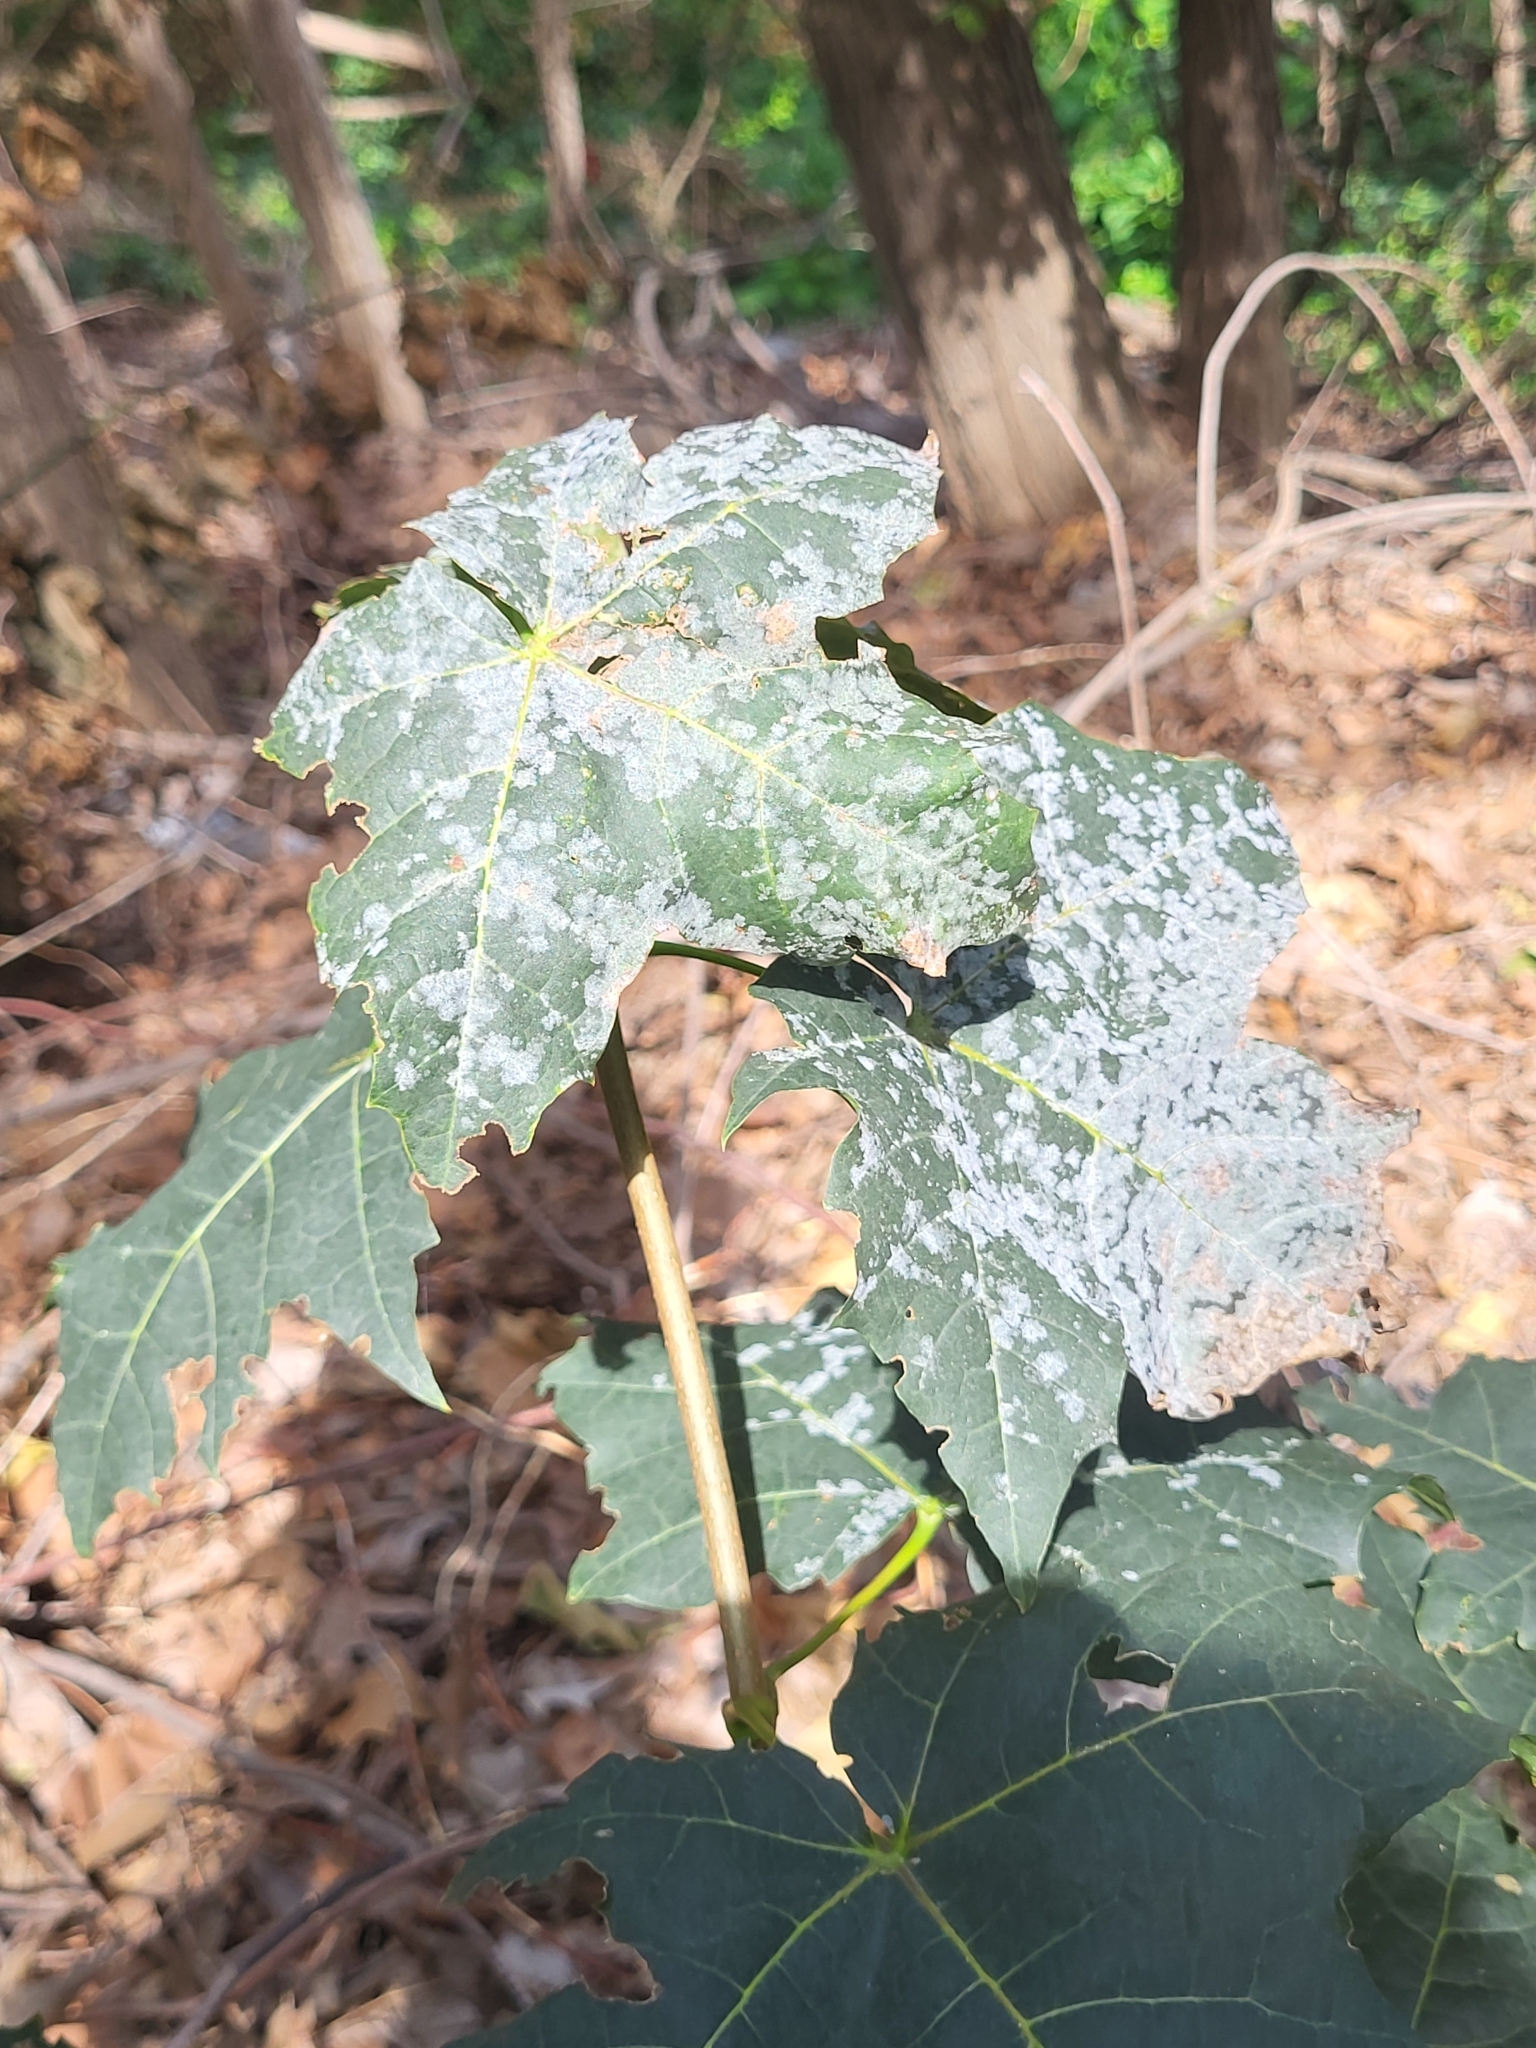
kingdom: Fungi
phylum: Ascomycota
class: Leotiomycetes
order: Helotiales
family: Erysiphaceae
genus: Sawadaea
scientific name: Sawadaea tulasnei
